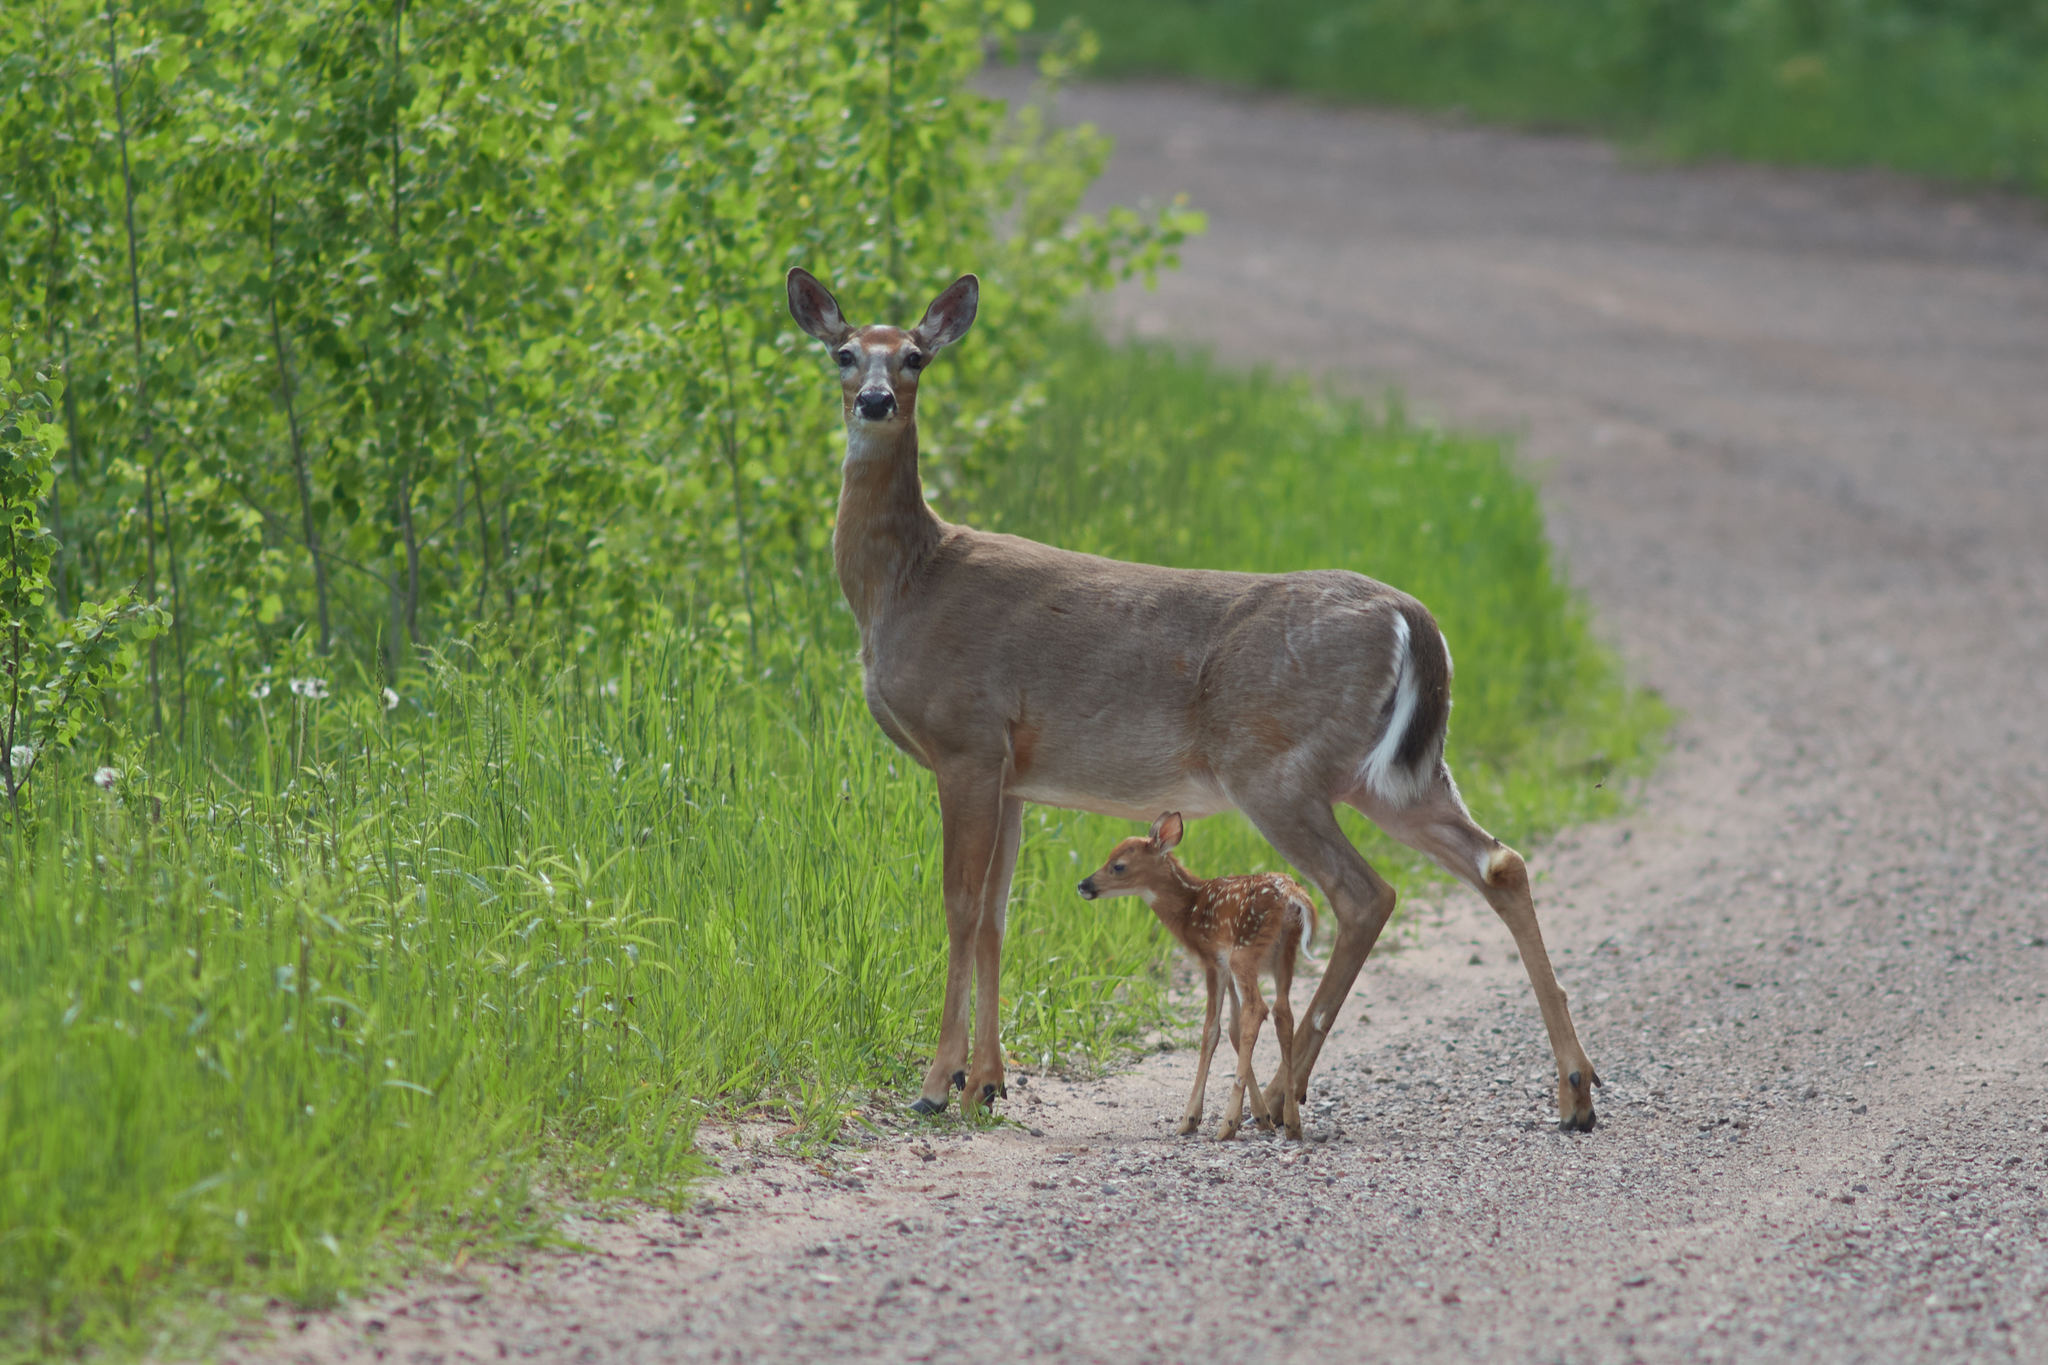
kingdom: Animalia
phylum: Chordata
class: Mammalia
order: Artiodactyla
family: Cervidae
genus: Odocoileus
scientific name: Odocoileus virginianus
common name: White-tailed deer
